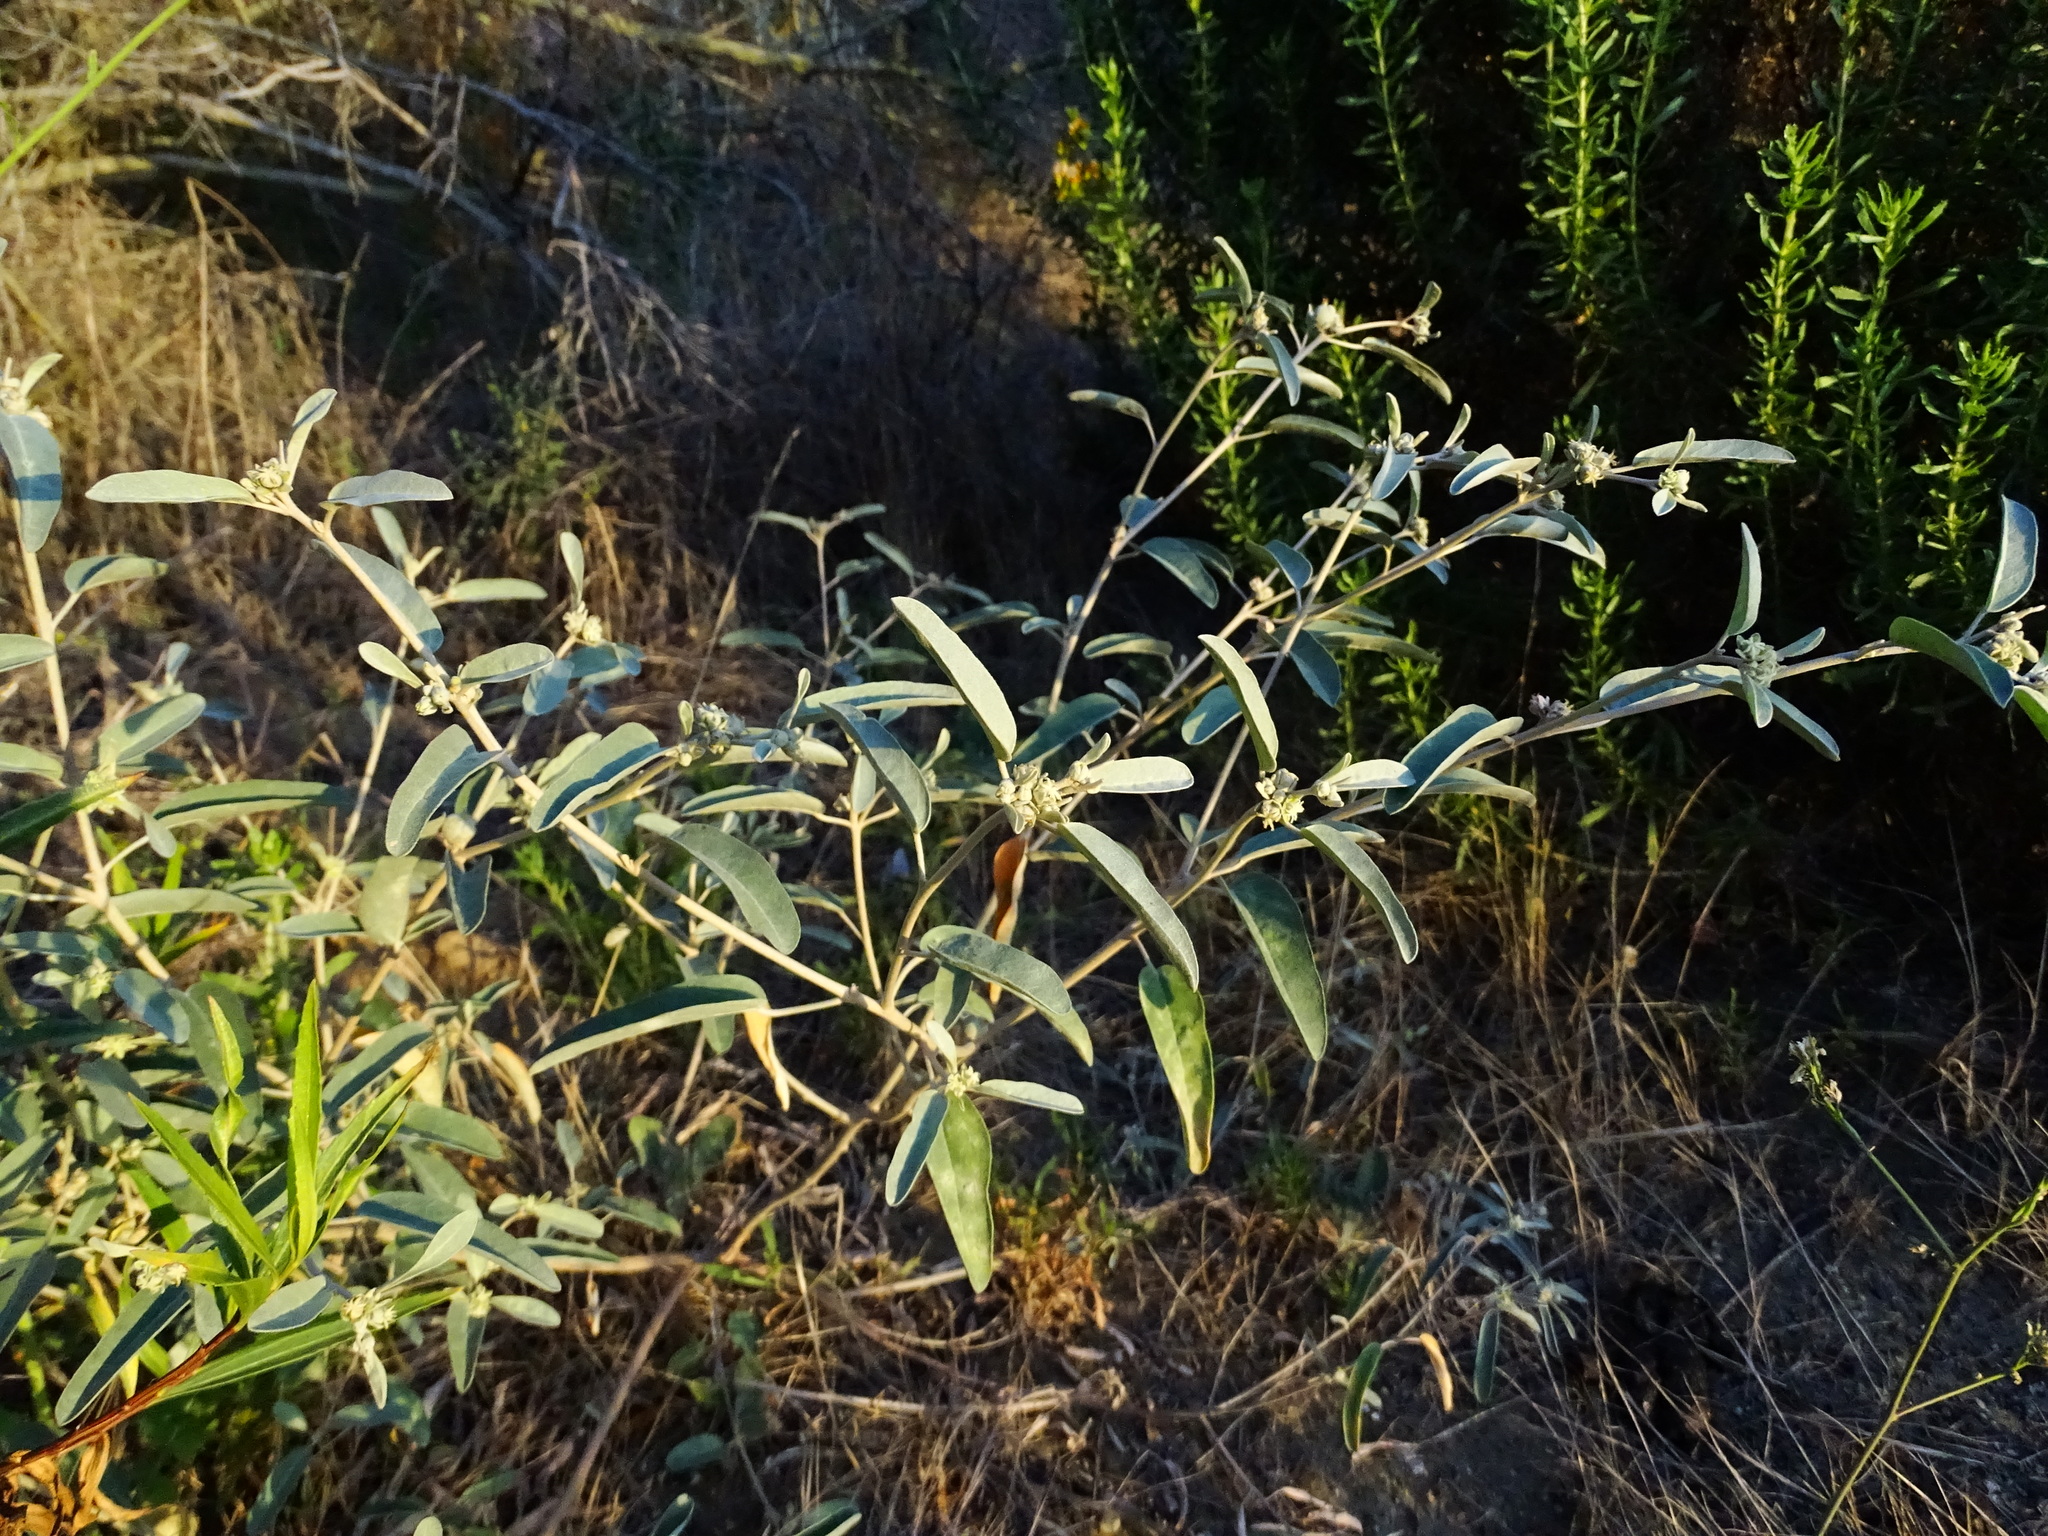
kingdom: Plantae
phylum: Tracheophyta
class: Magnoliopsida
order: Malpighiales
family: Euphorbiaceae
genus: Croton
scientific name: Croton californicus
